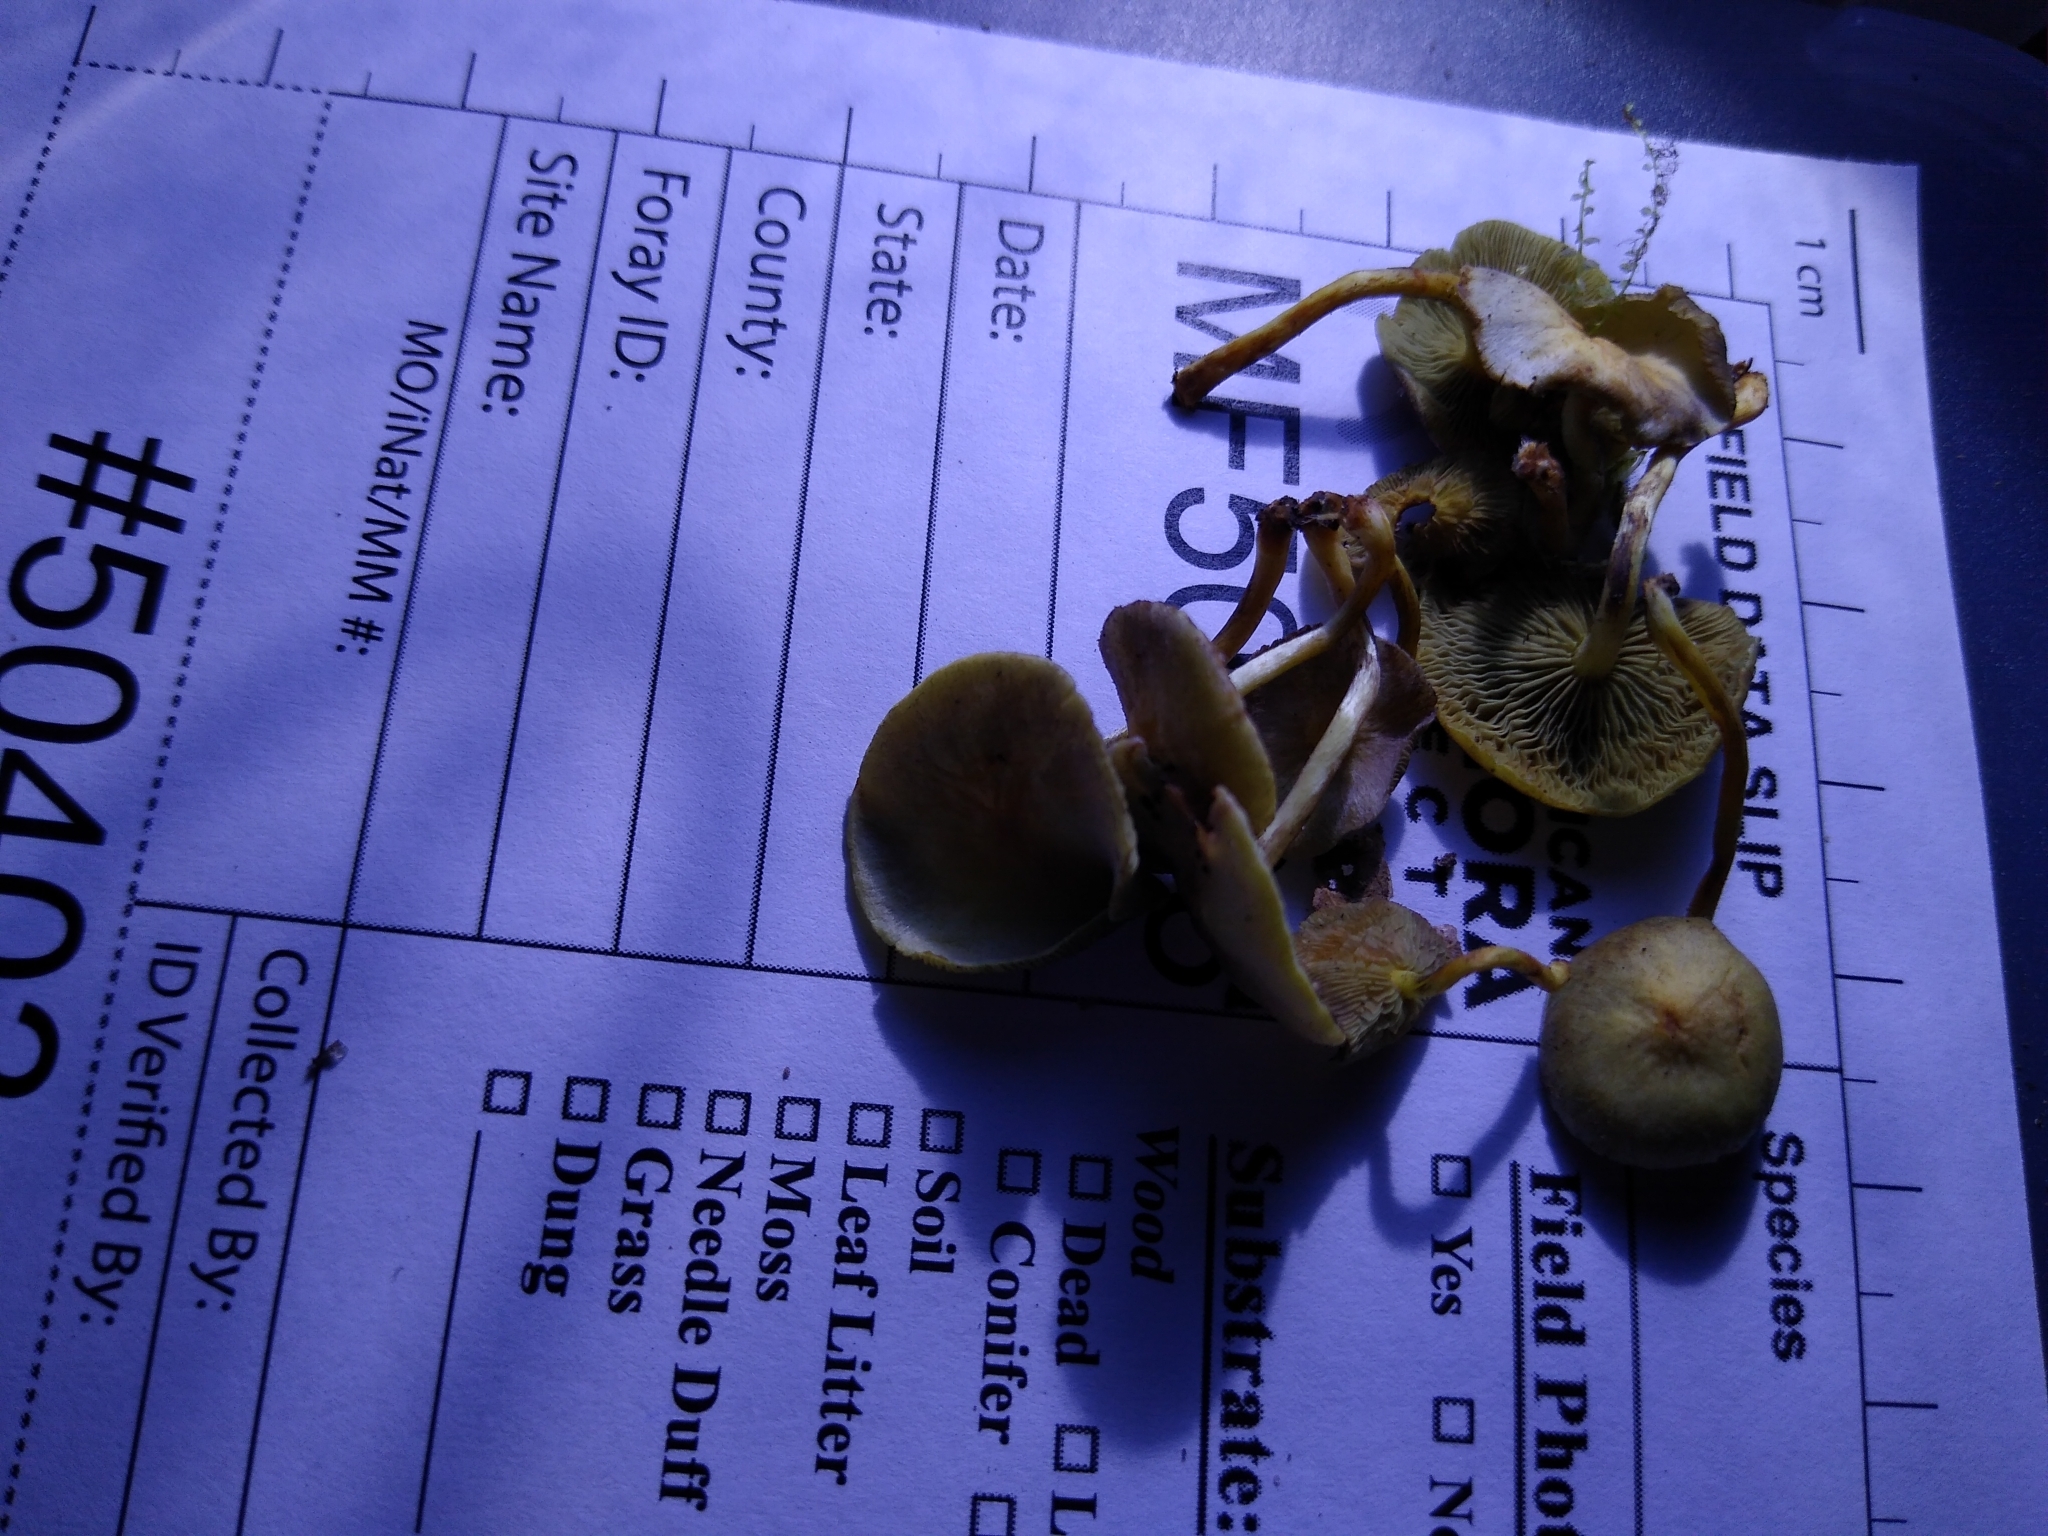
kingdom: Fungi
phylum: Basidiomycota
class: Agaricomycetes
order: Agaricales
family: Strophariaceae
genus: Hypholoma
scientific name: Hypholoma fasciculare
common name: Sulphur tuft
